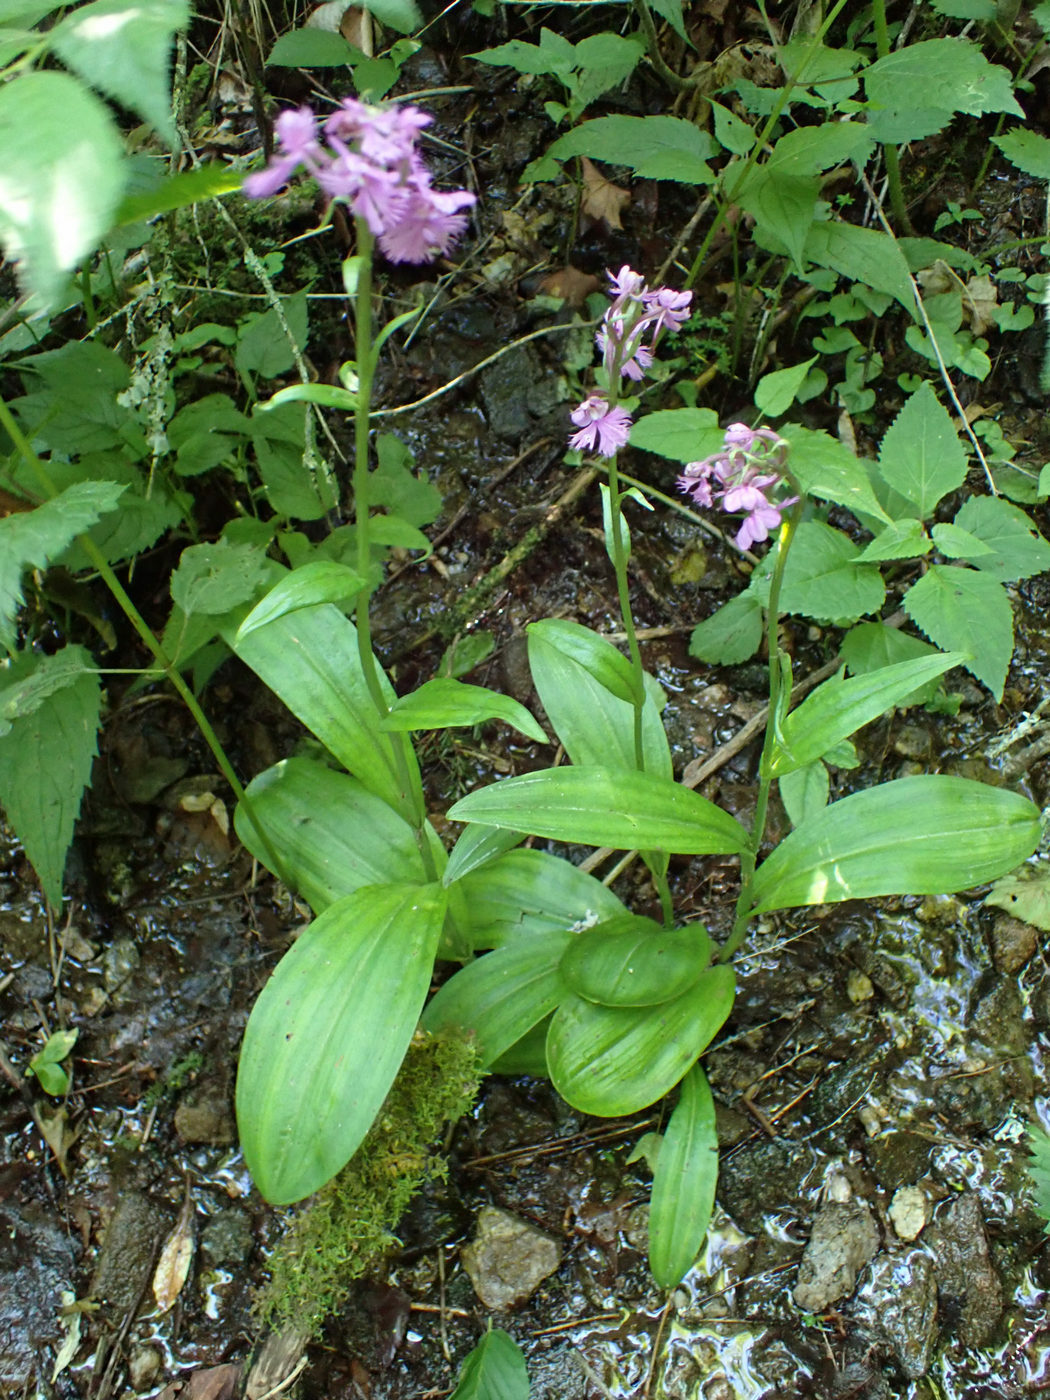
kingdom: Plantae
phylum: Tracheophyta
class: Liliopsida
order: Asparagales
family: Orchidaceae
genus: Platanthera
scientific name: Platanthera grandiflora
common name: Greater purple fringed orchid
